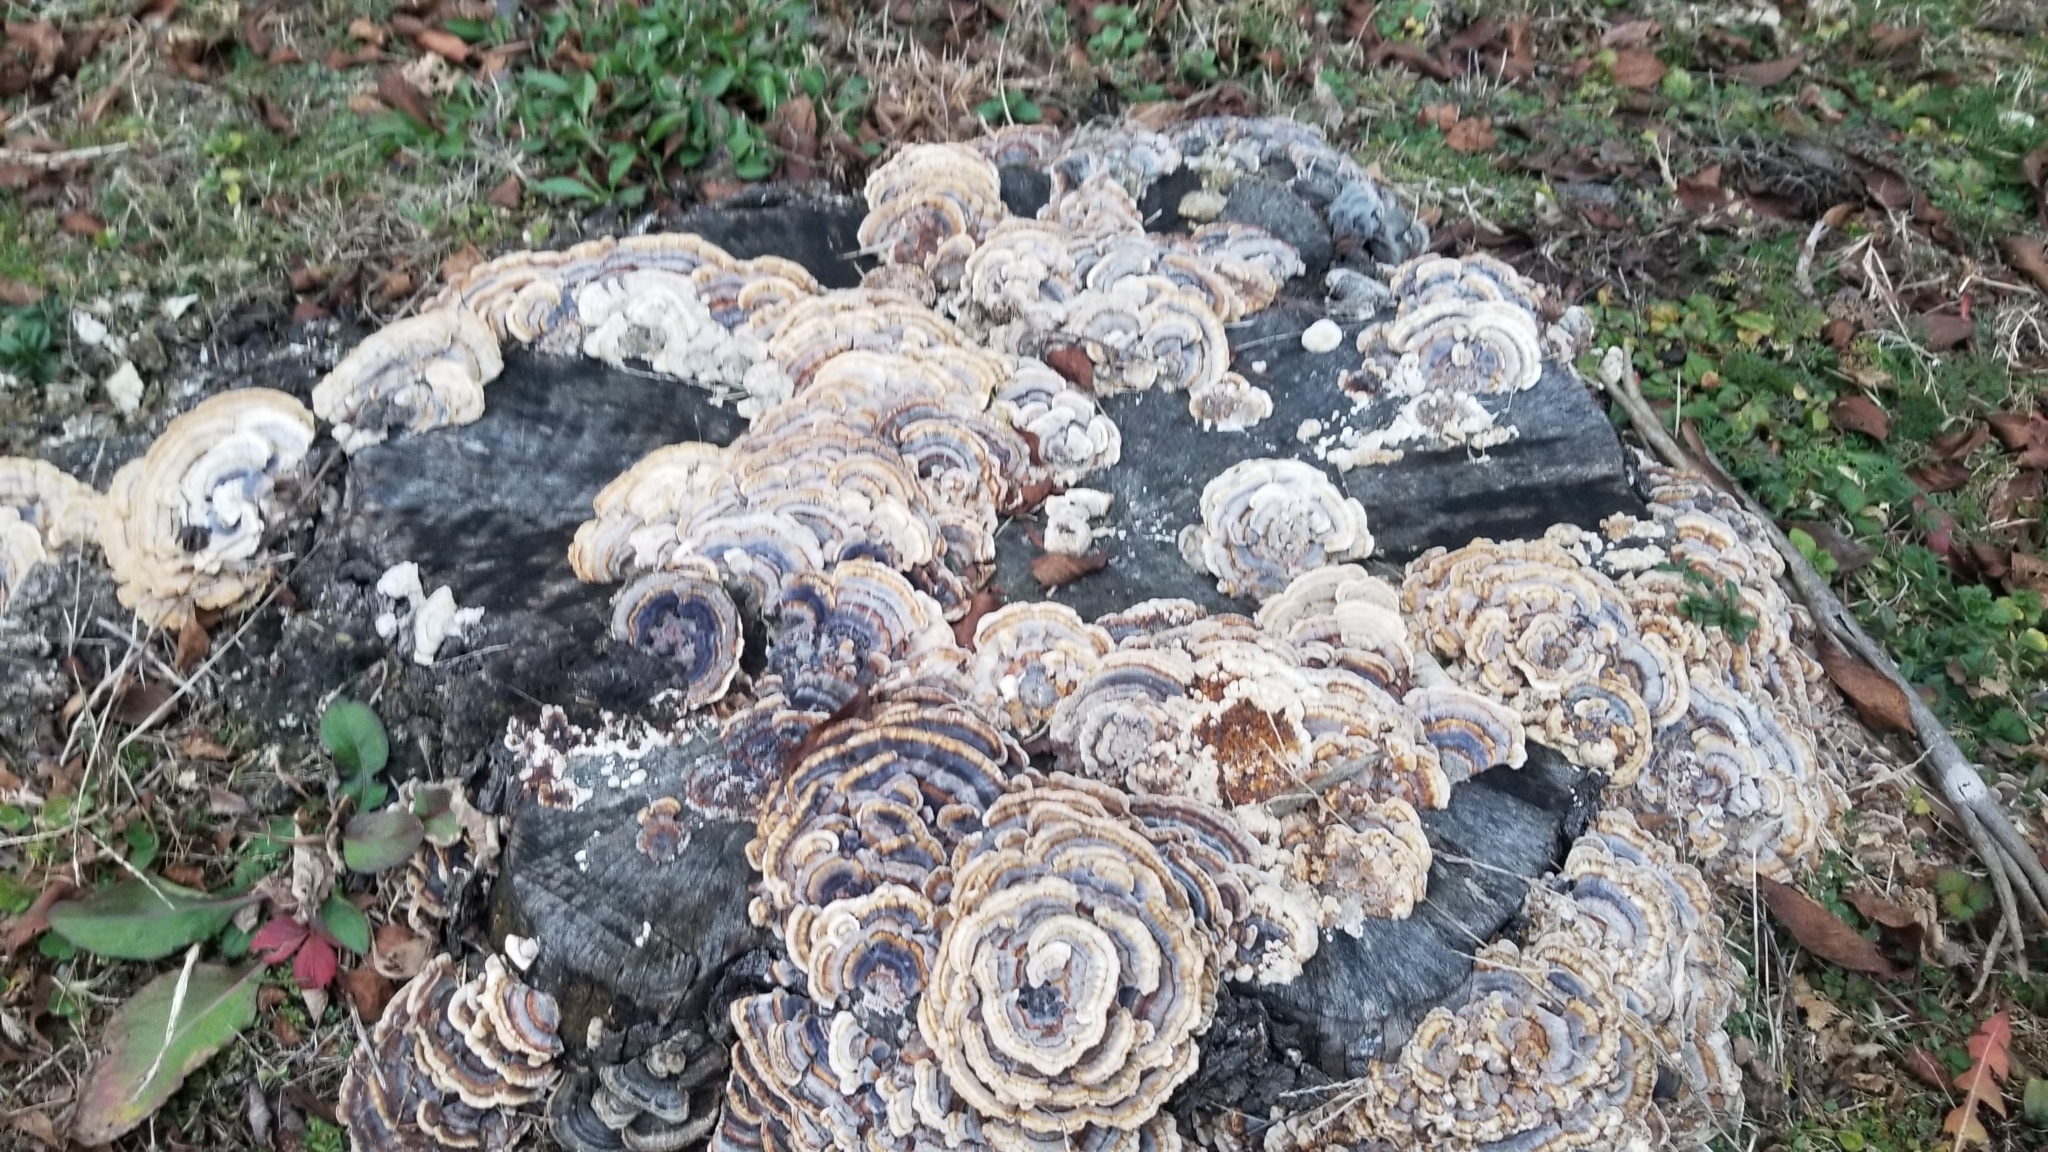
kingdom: Fungi
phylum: Basidiomycota
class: Agaricomycetes
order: Polyporales
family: Polyporaceae
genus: Trametes
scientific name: Trametes versicolor
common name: Turkeytail
